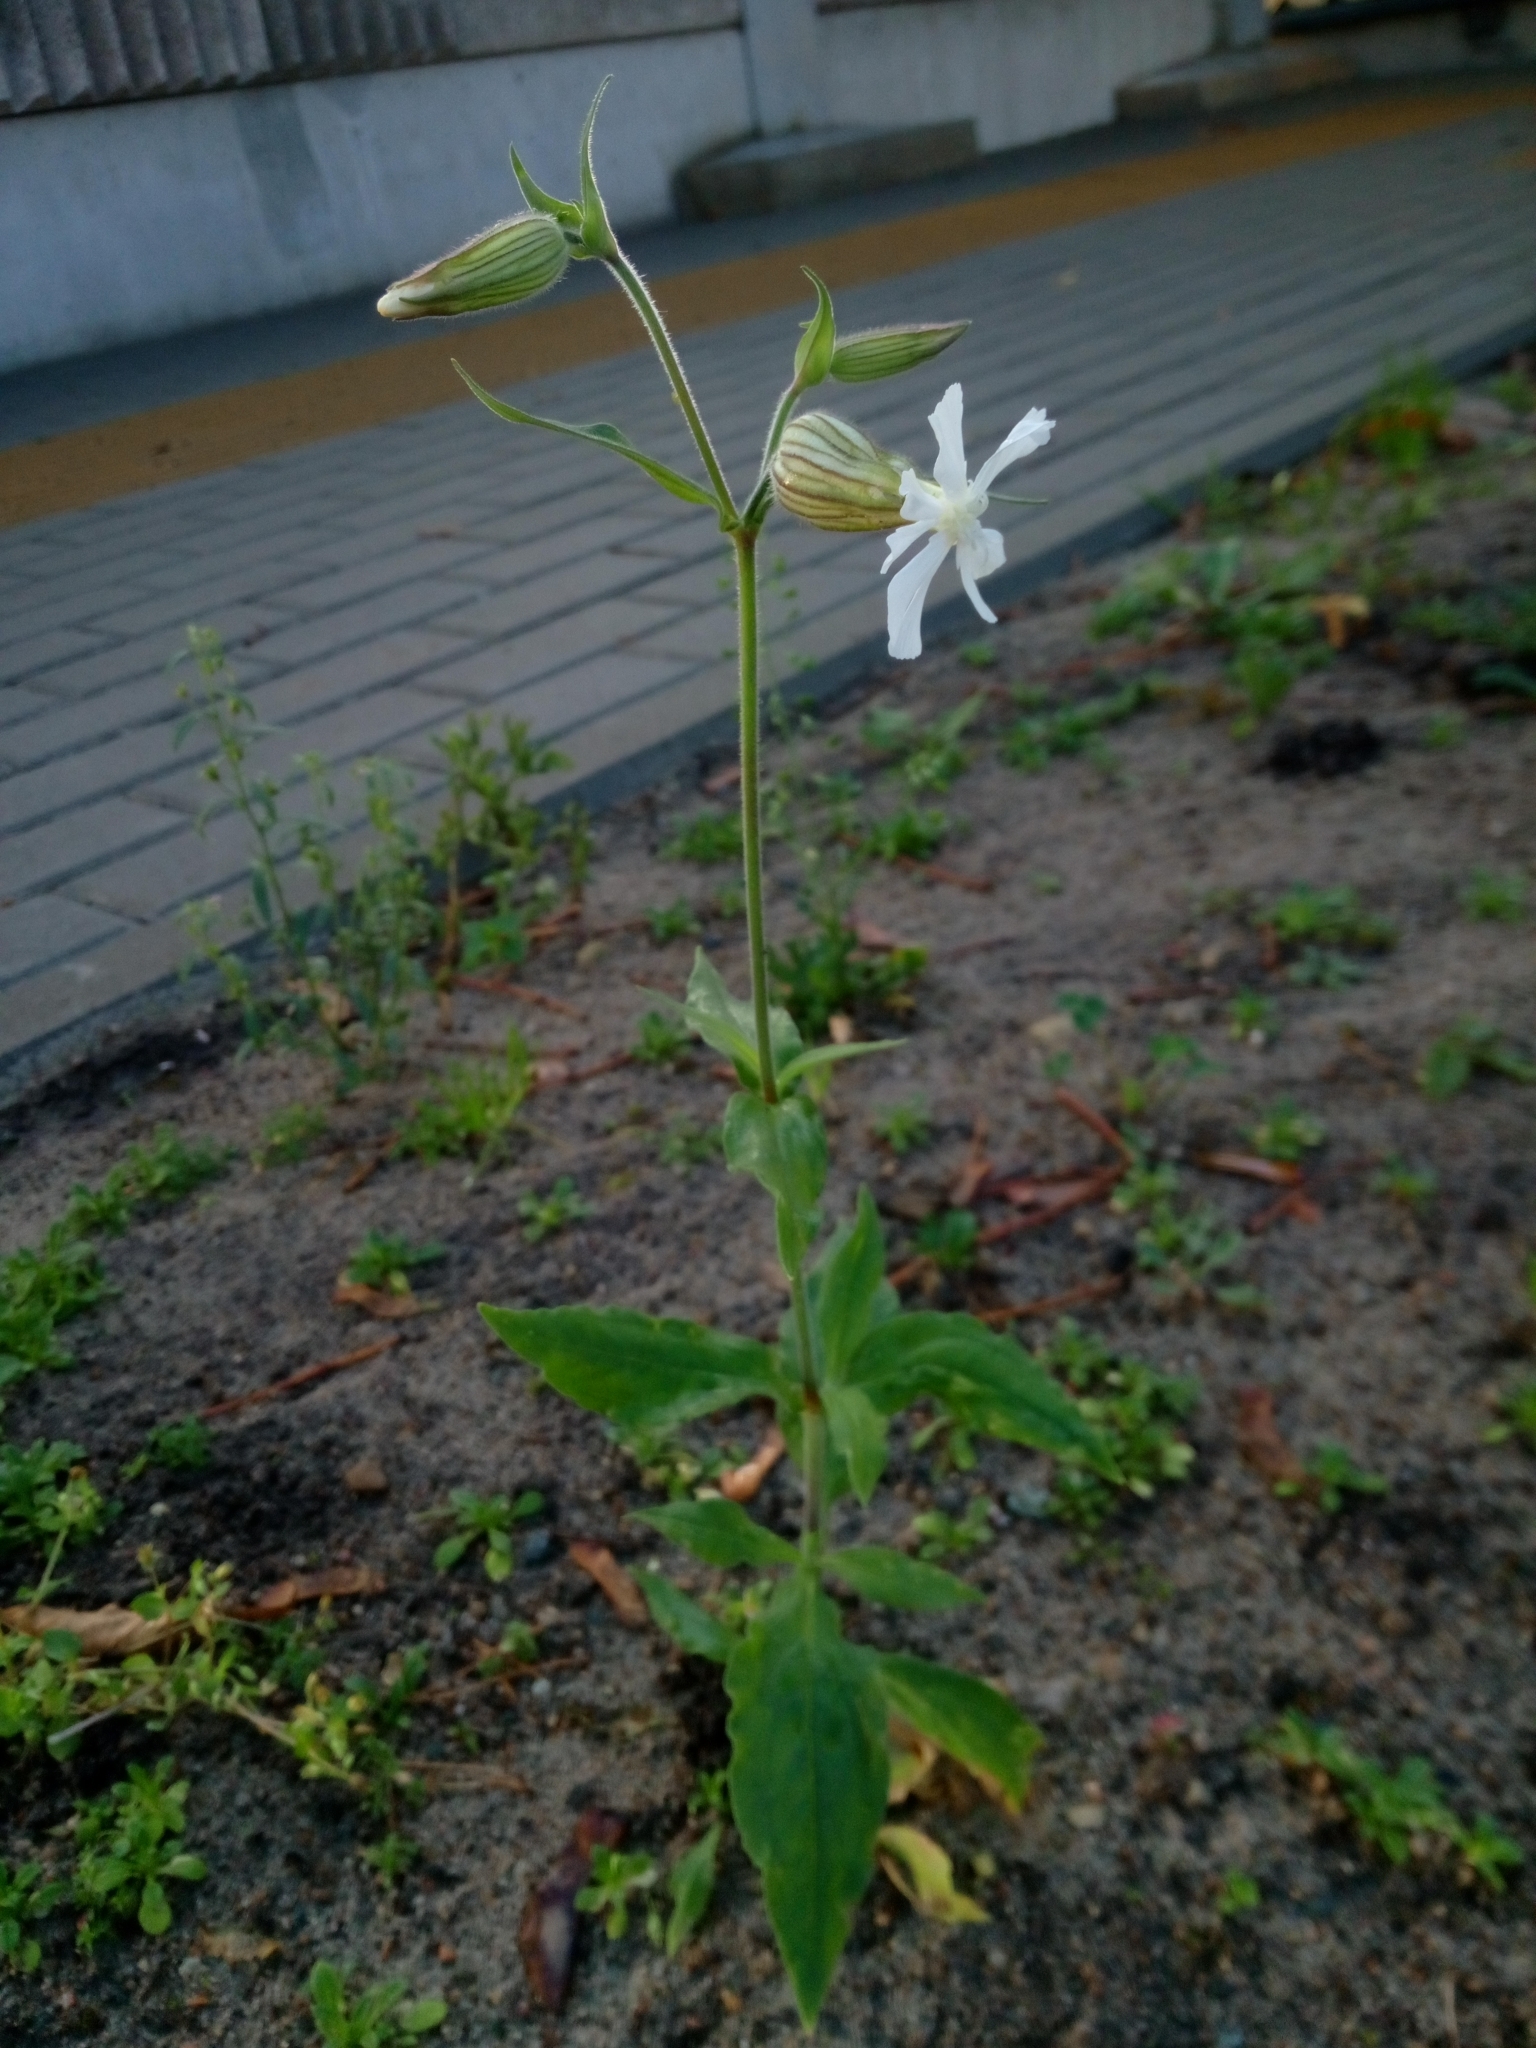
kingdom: Plantae
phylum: Tracheophyta
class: Magnoliopsida
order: Caryophyllales
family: Caryophyllaceae
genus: Silene
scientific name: Silene latifolia
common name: White campion
